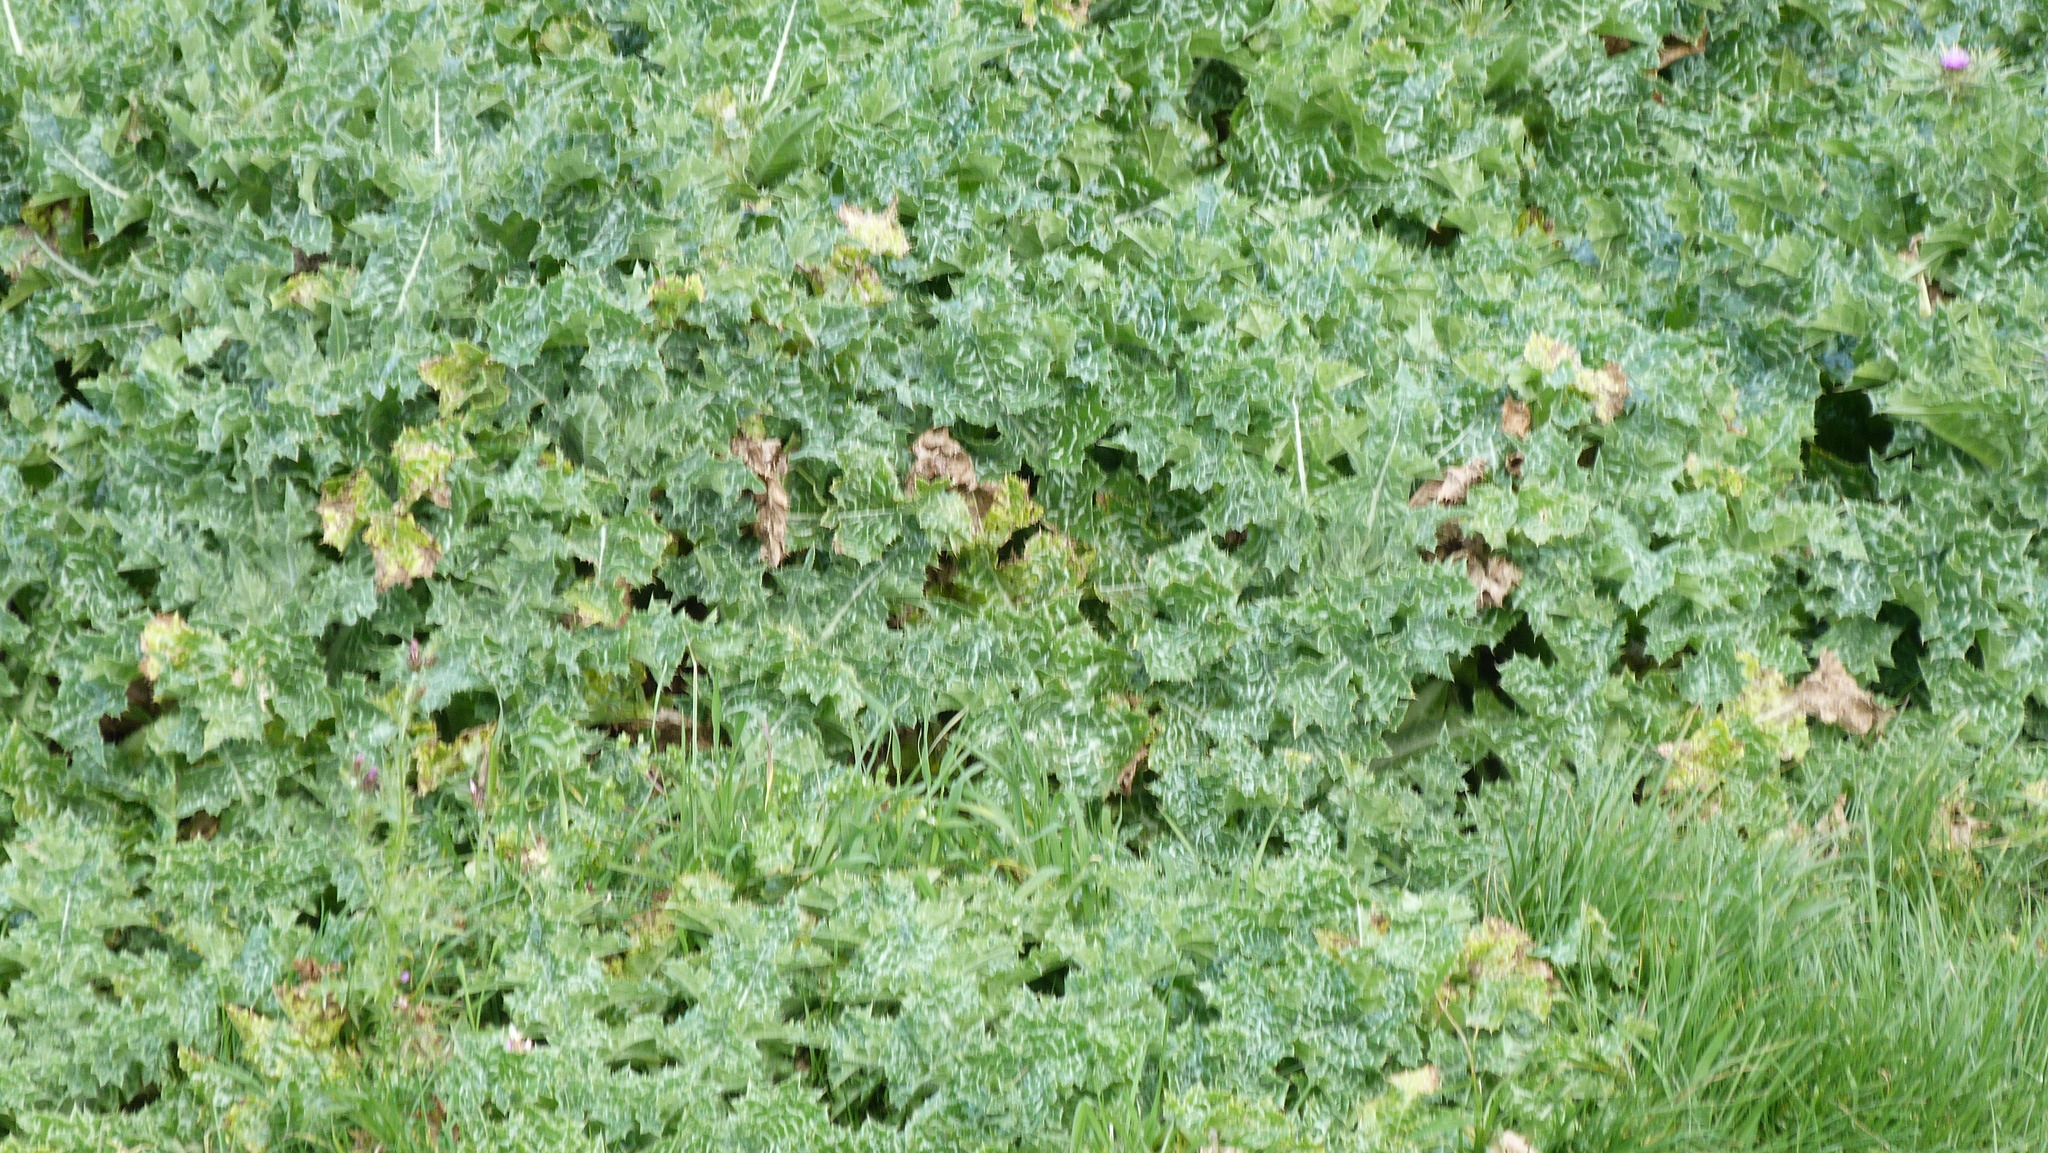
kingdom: Plantae
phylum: Tracheophyta
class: Magnoliopsida
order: Asterales
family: Asteraceae
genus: Silybum
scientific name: Silybum marianum
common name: Milk thistle
